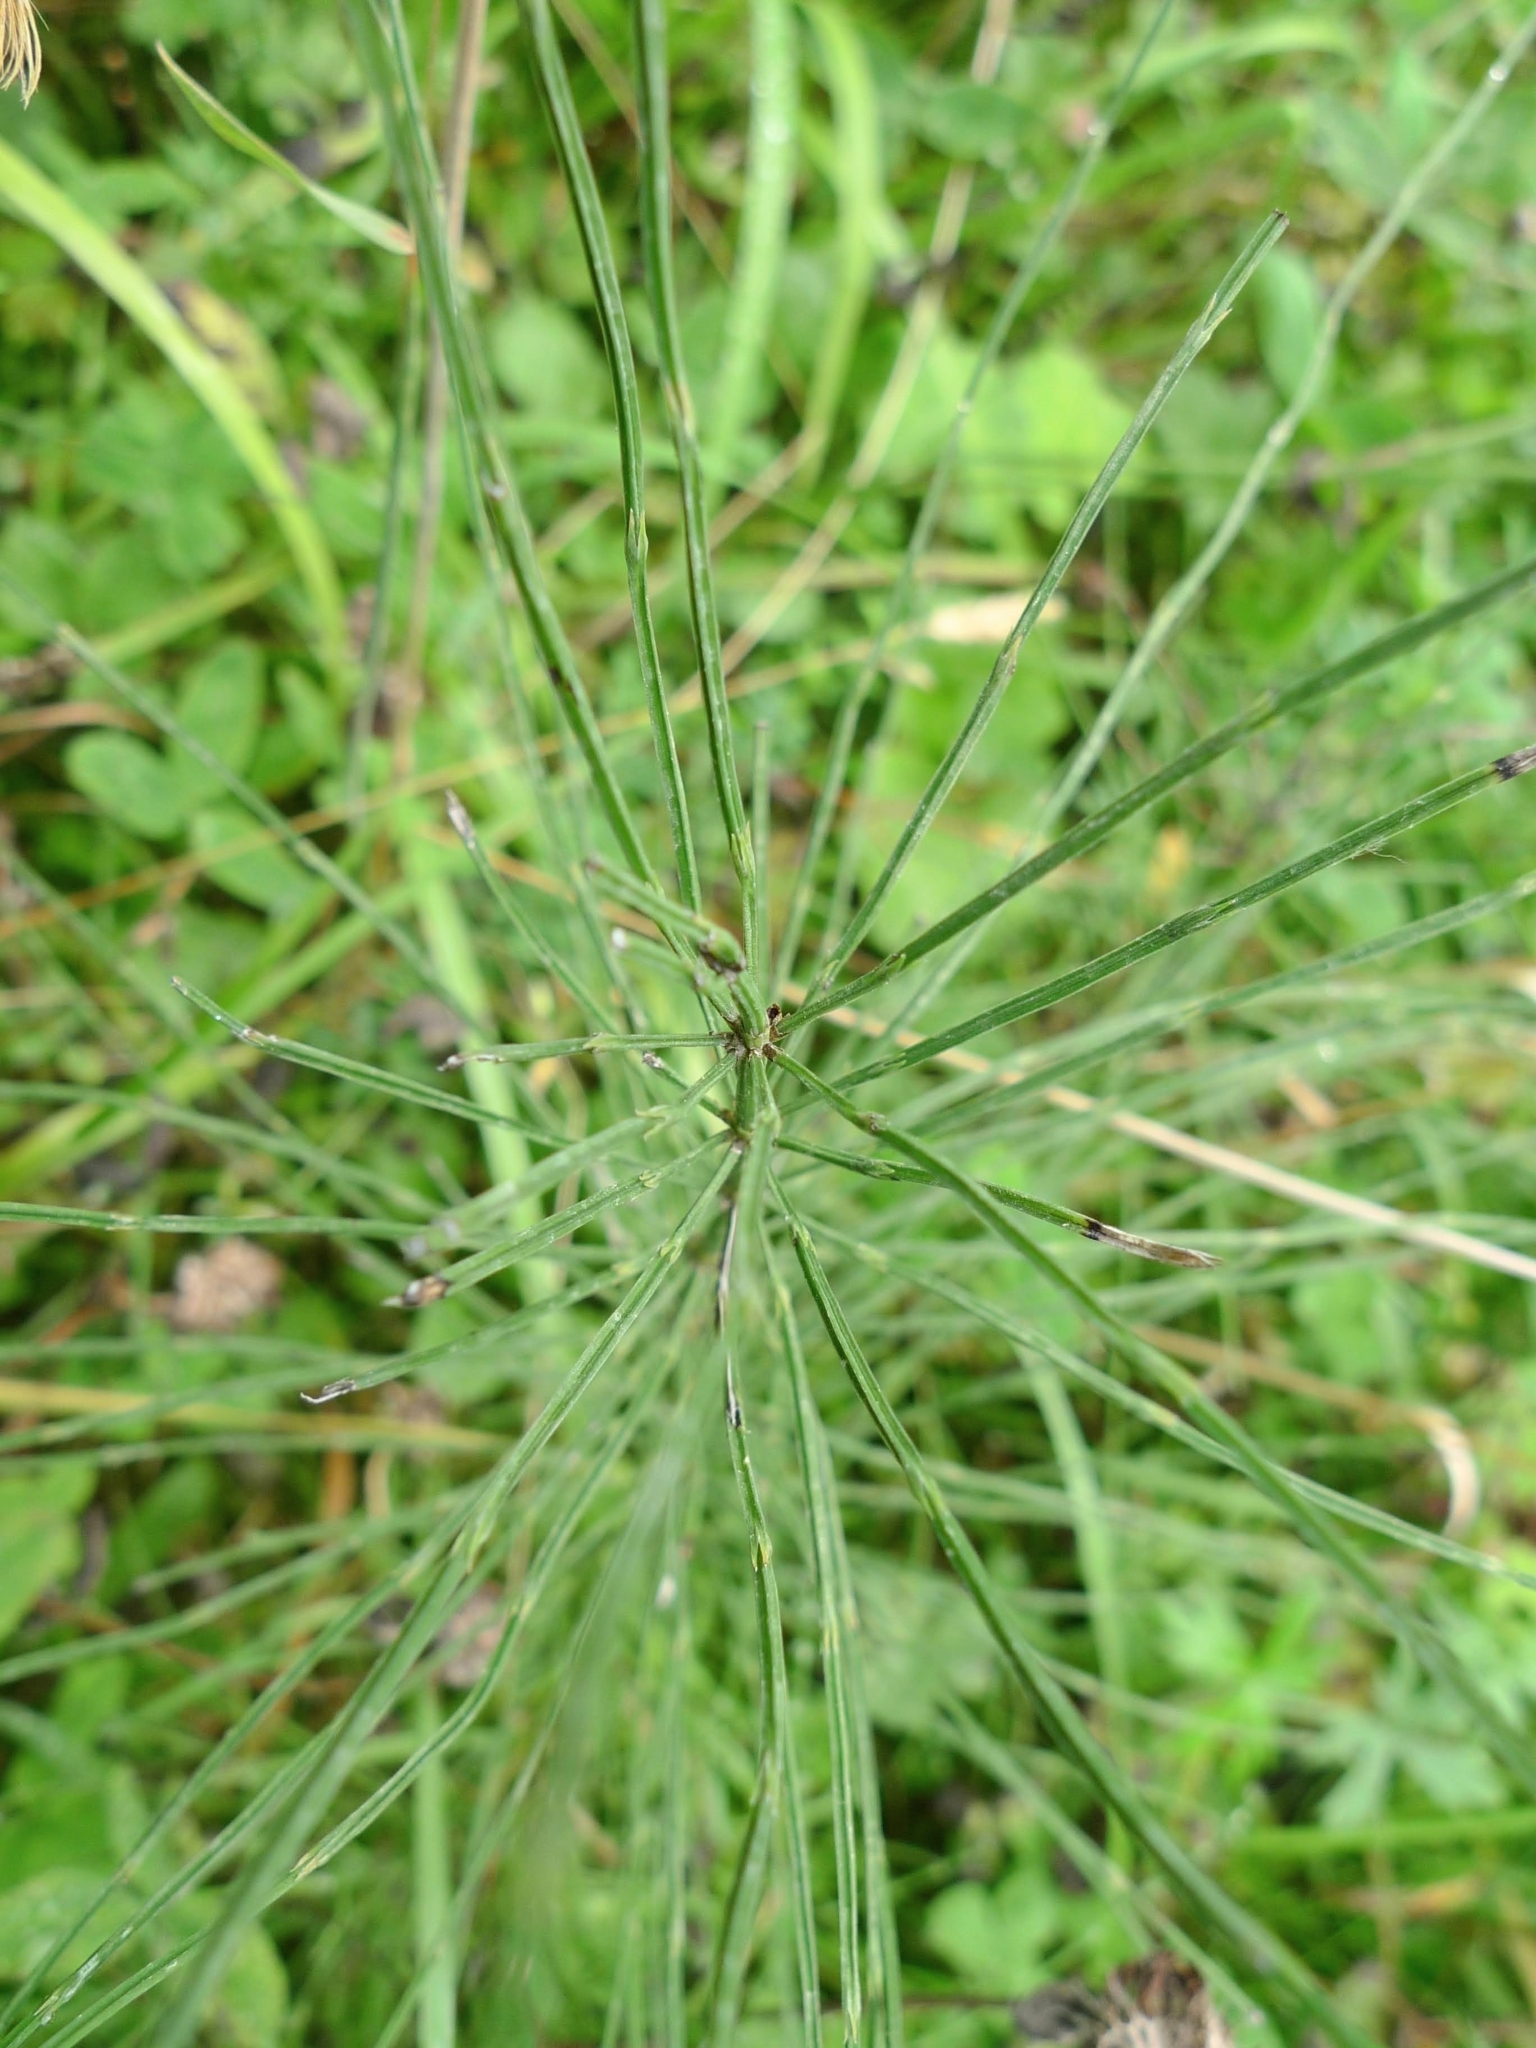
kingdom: Plantae
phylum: Tracheophyta
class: Polypodiopsida
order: Equisetales
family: Equisetaceae
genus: Equisetum
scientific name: Equisetum arvense
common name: Field horsetail
